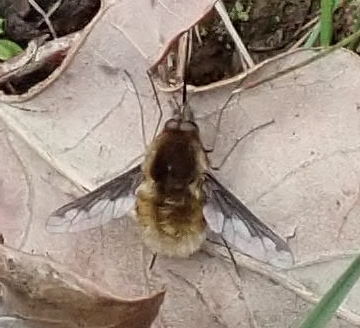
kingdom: Animalia
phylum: Arthropoda
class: Insecta
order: Diptera
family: Bombyliidae
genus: Bombylius
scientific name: Bombylius major
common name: Bee fly
